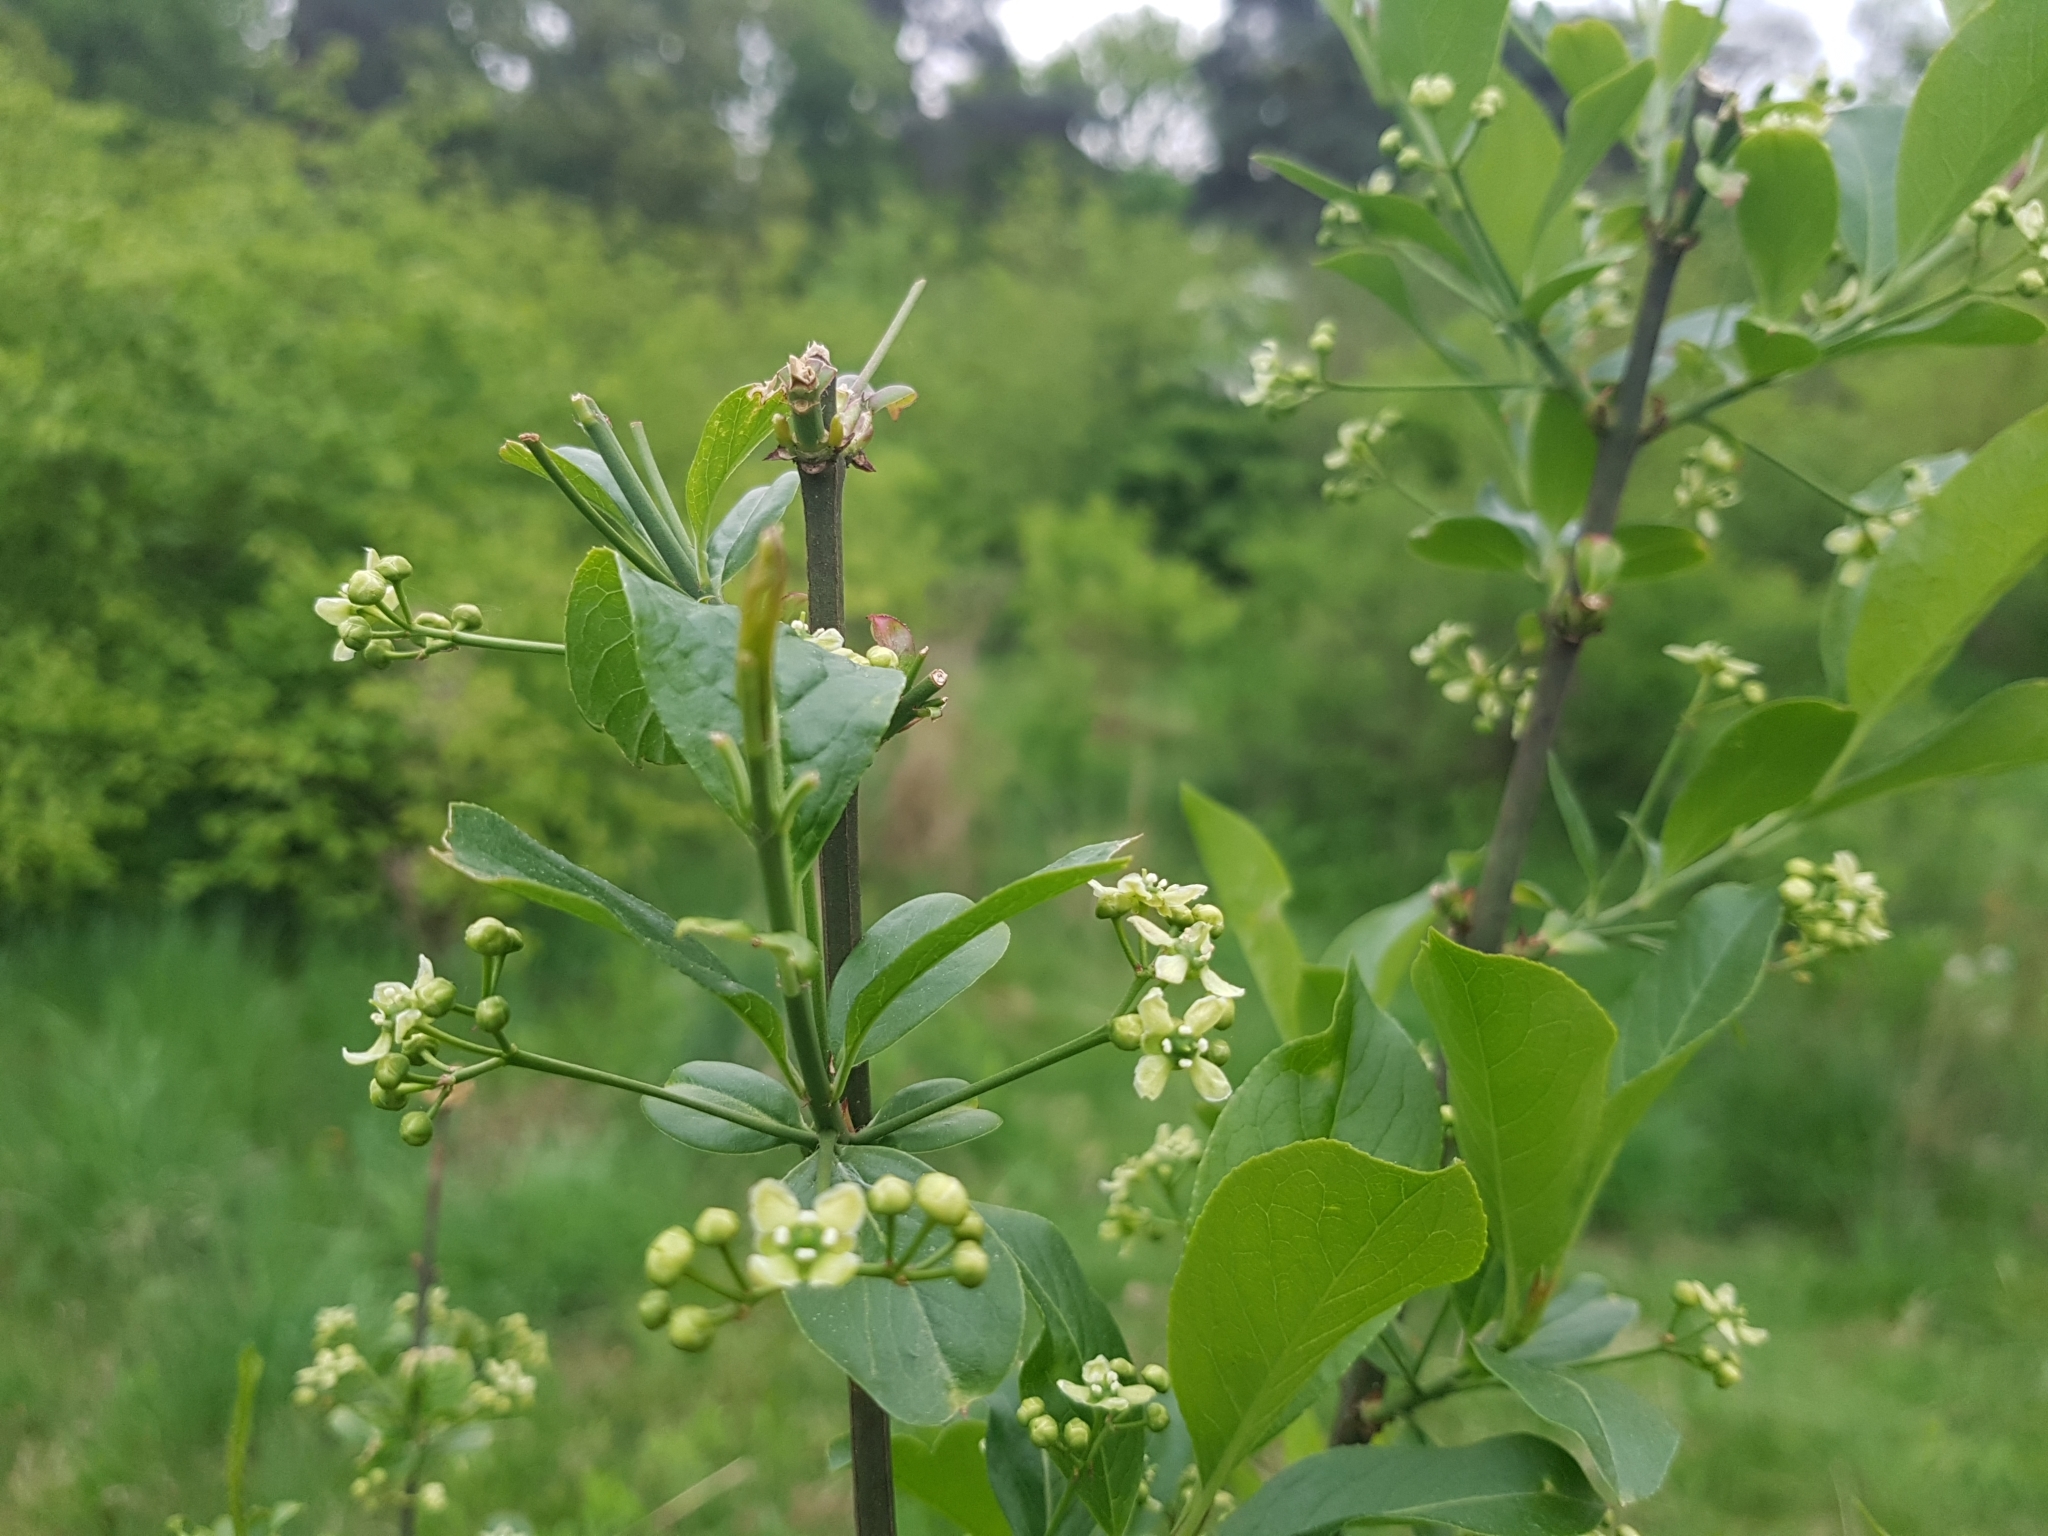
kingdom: Plantae
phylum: Tracheophyta
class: Magnoliopsida
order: Celastrales
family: Celastraceae
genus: Euonymus
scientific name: Euonymus europaeus
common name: Spindle
